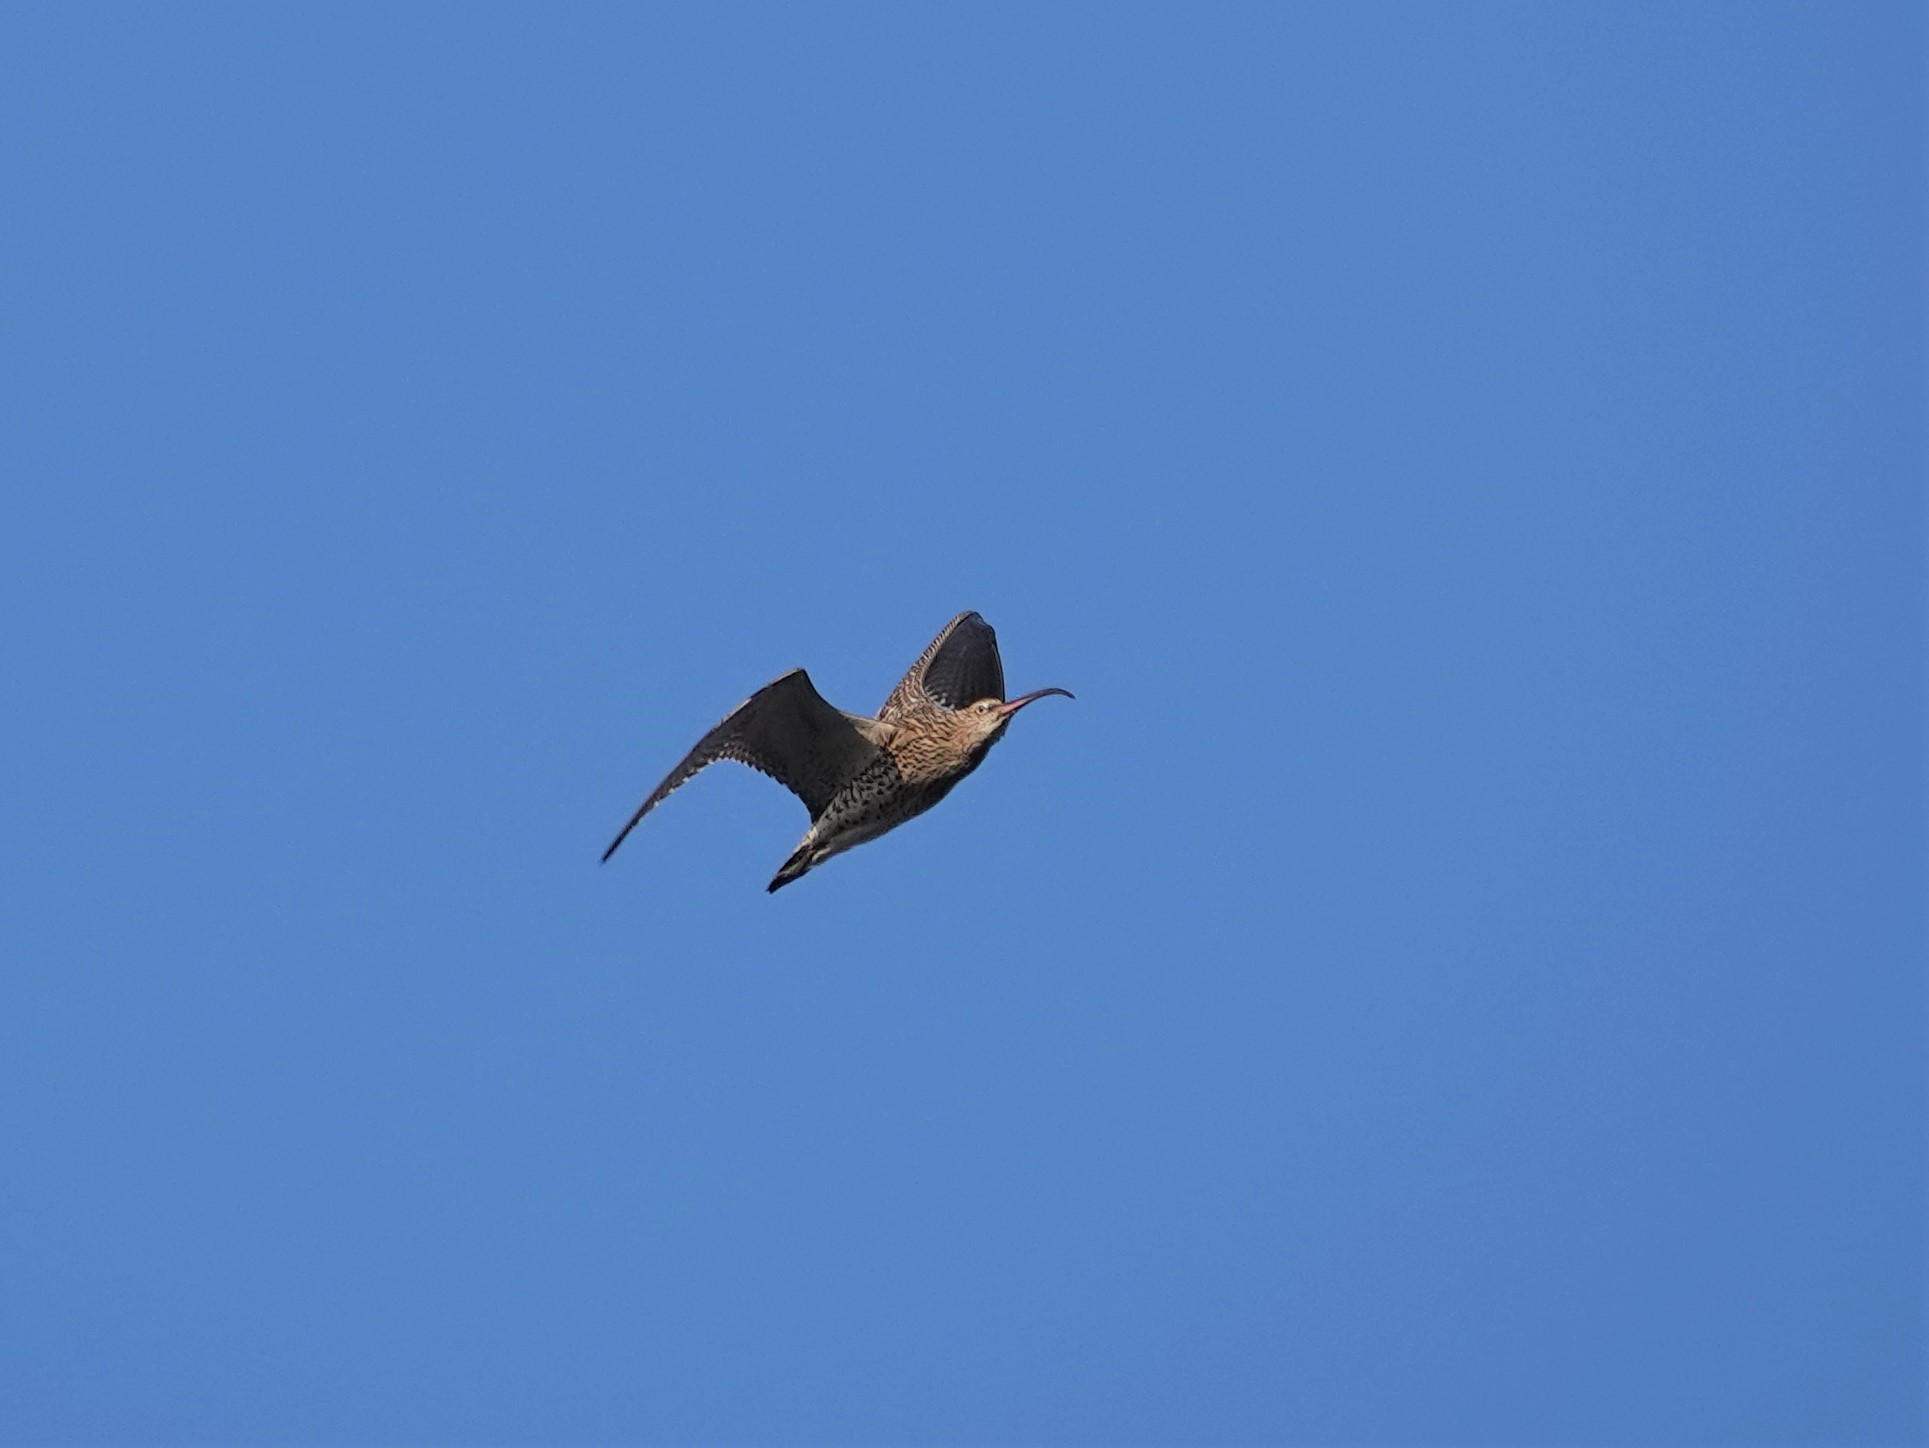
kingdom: Animalia
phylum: Chordata
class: Aves
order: Charadriiformes
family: Scolopacidae
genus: Numenius
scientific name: Numenius arquata
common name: Eurasian curlew
